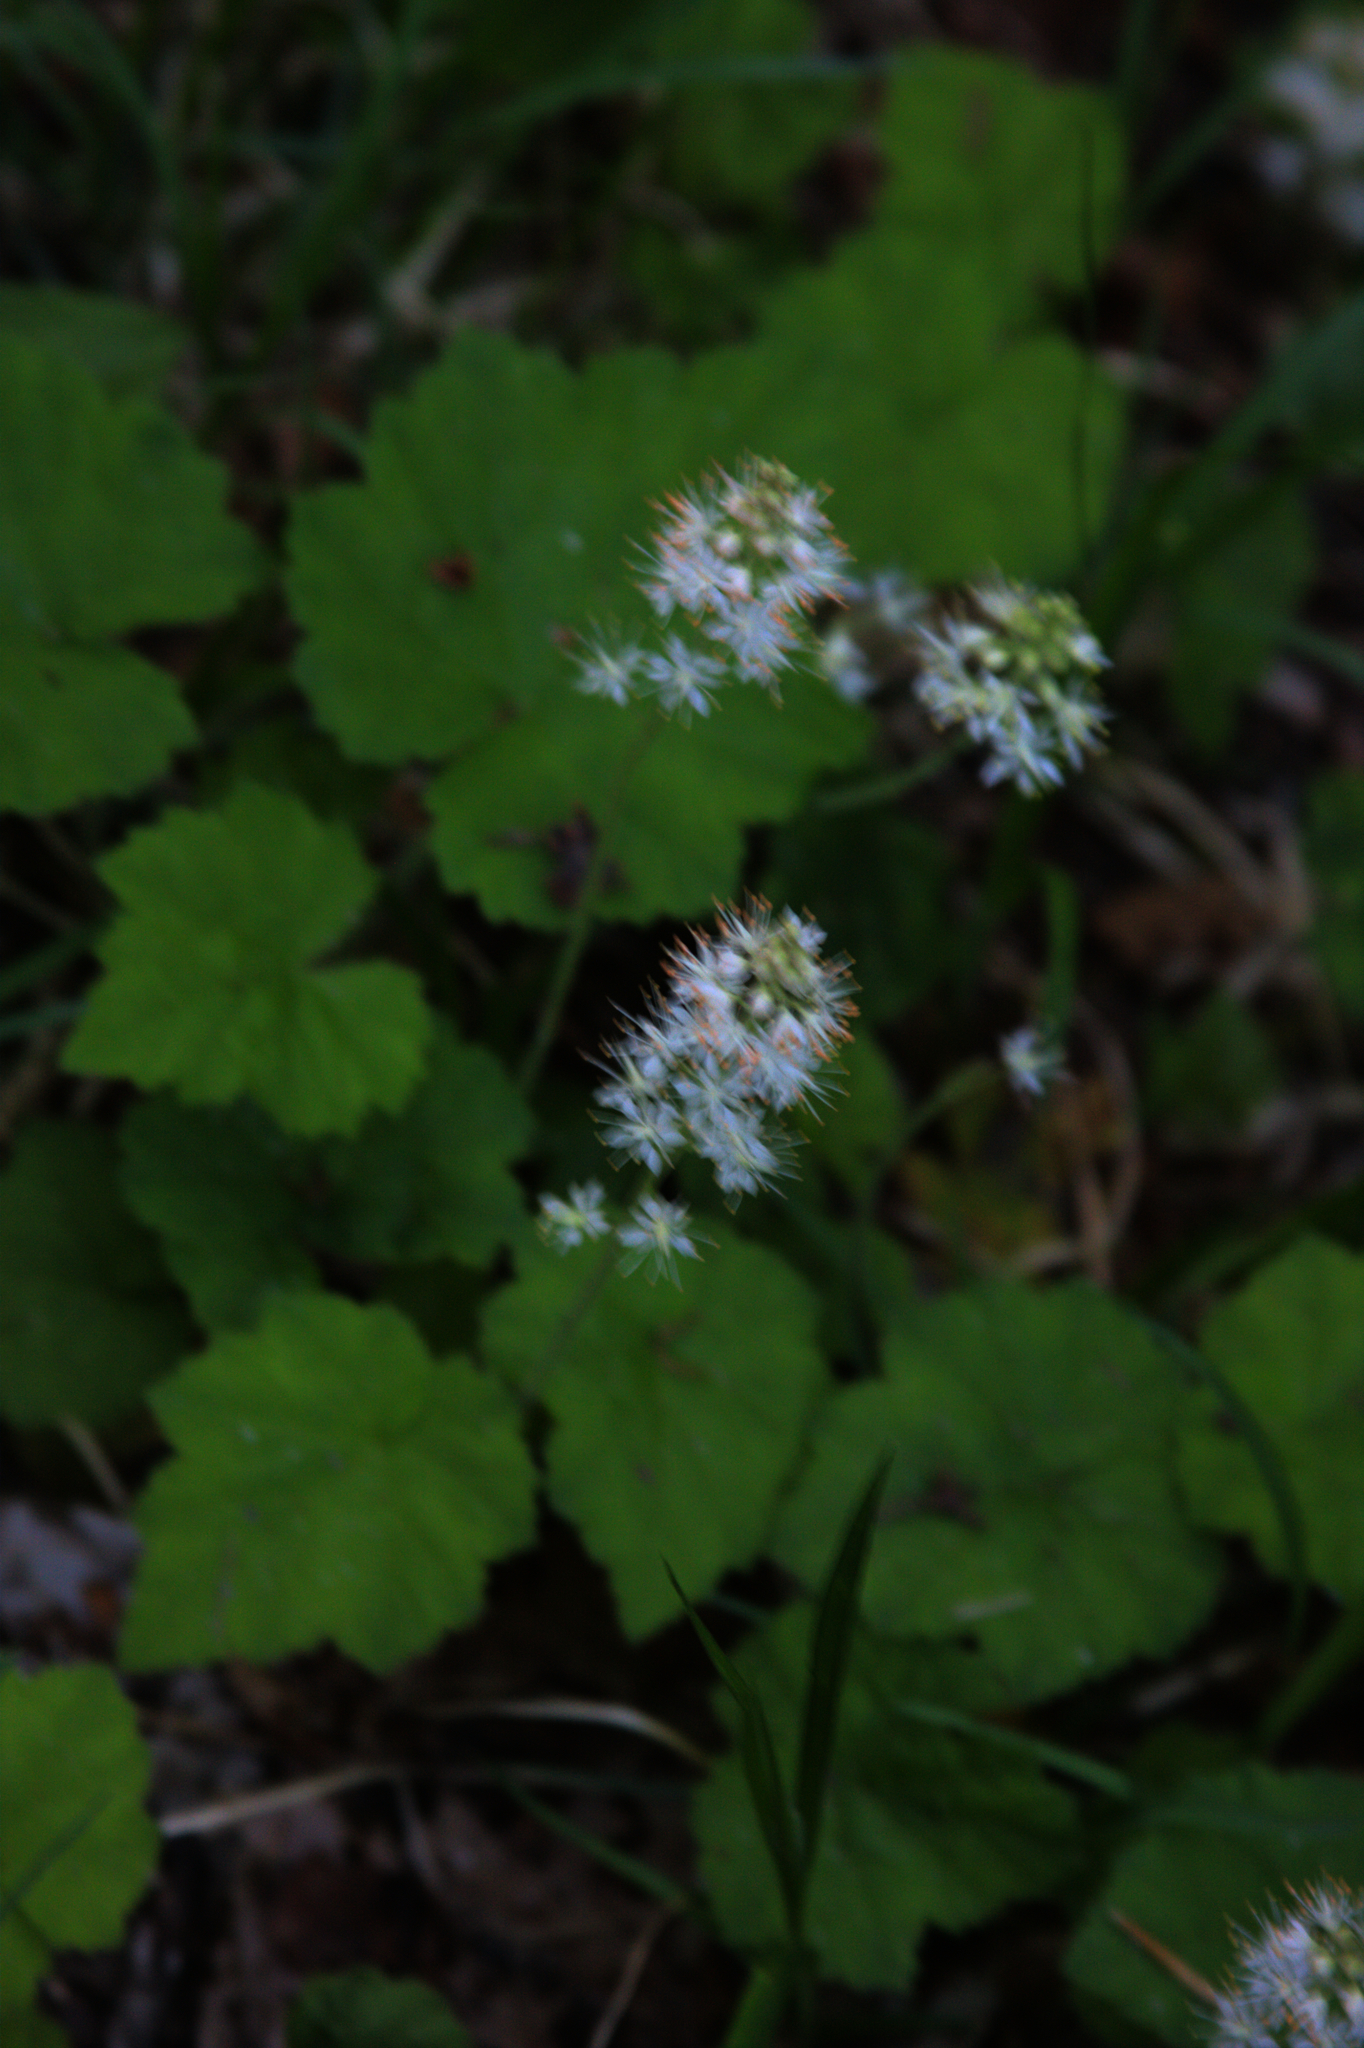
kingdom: Plantae
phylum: Tracheophyta
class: Magnoliopsida
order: Saxifragales
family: Saxifragaceae
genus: Tiarella
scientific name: Tiarella stolonifera
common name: Stoloniferous foamflower
